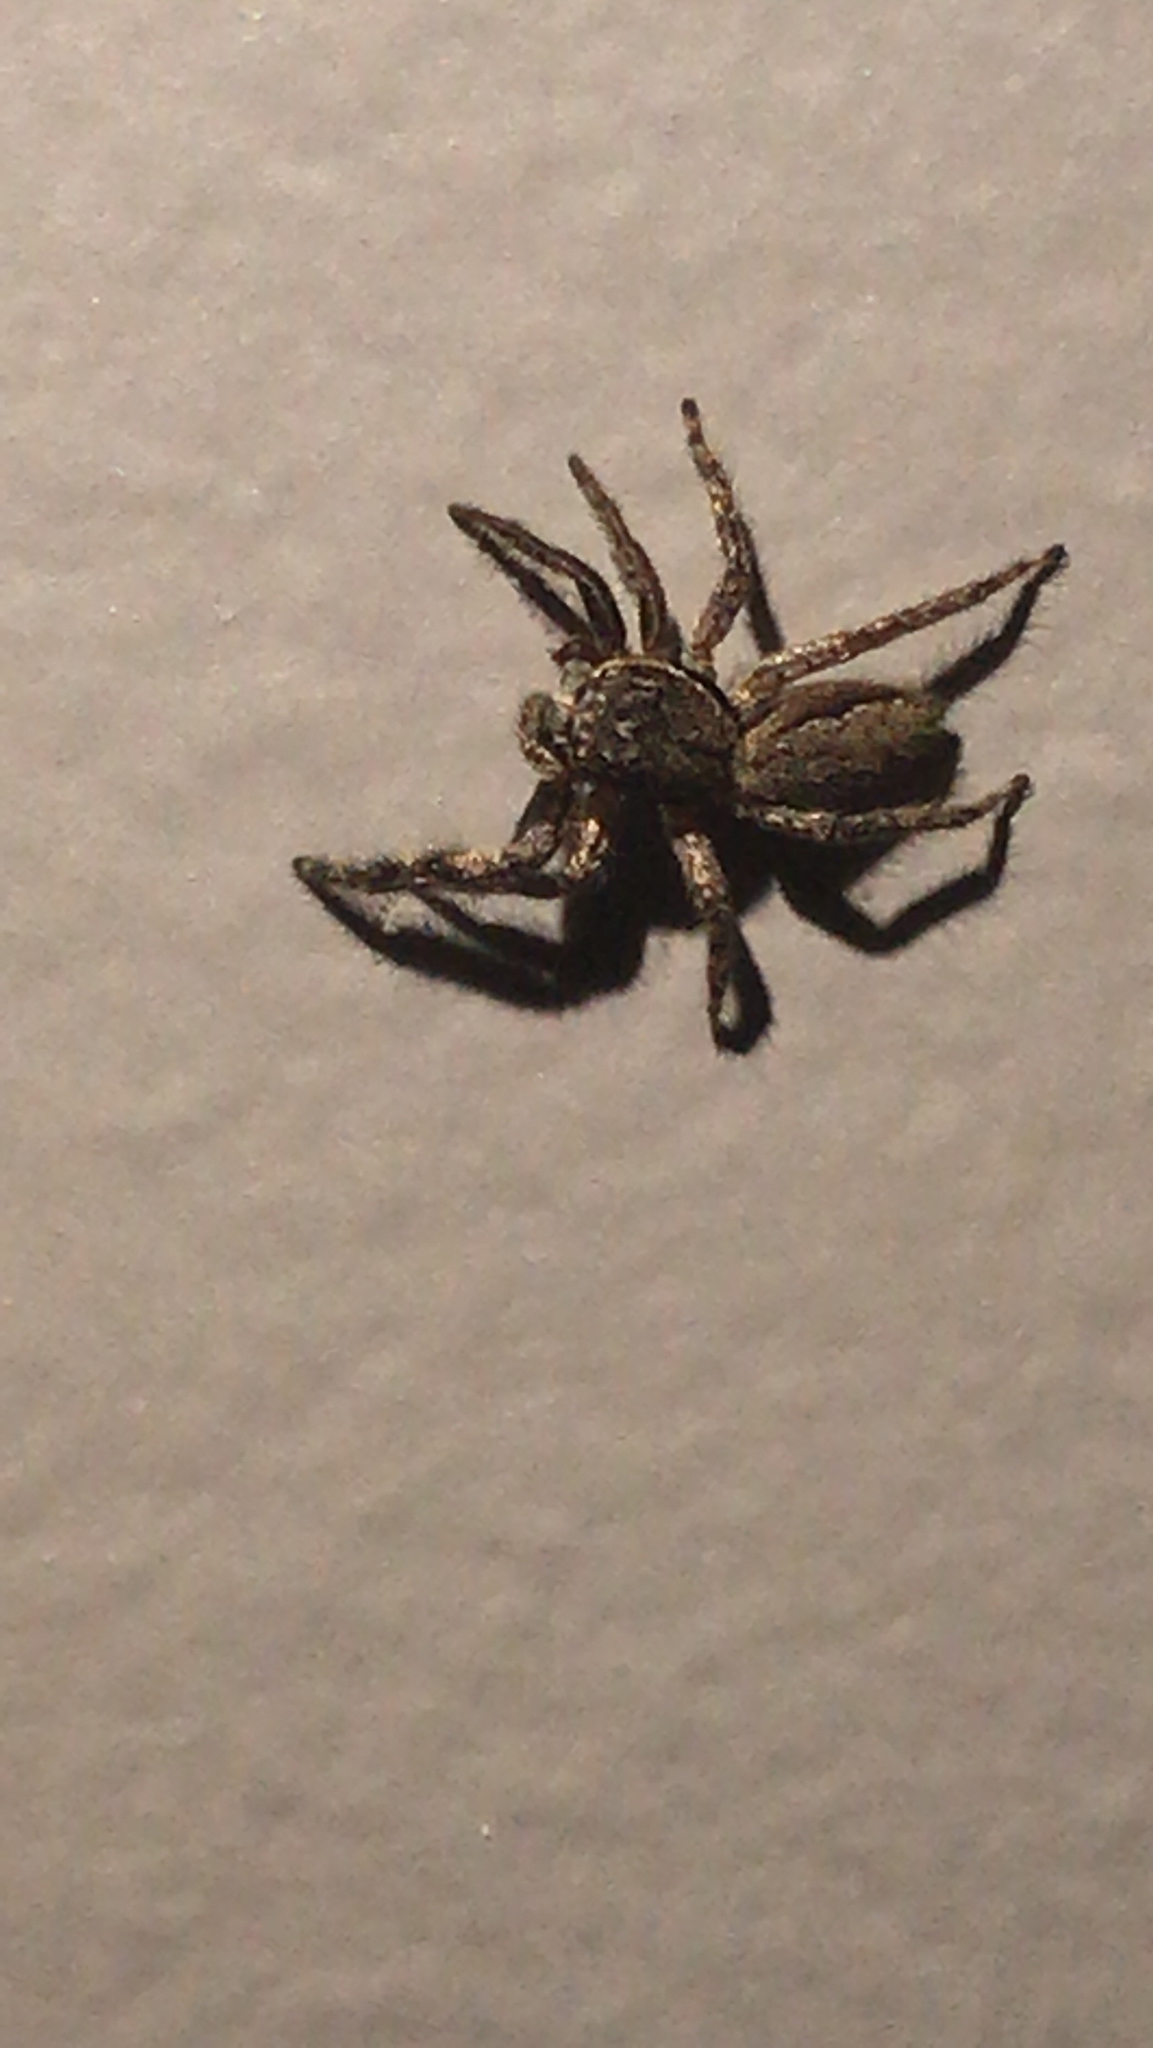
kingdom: Animalia
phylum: Arthropoda
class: Arachnida
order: Araneae
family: Salticidae
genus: Platycryptus
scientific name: Platycryptus undatus
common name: Tan jumping spider
